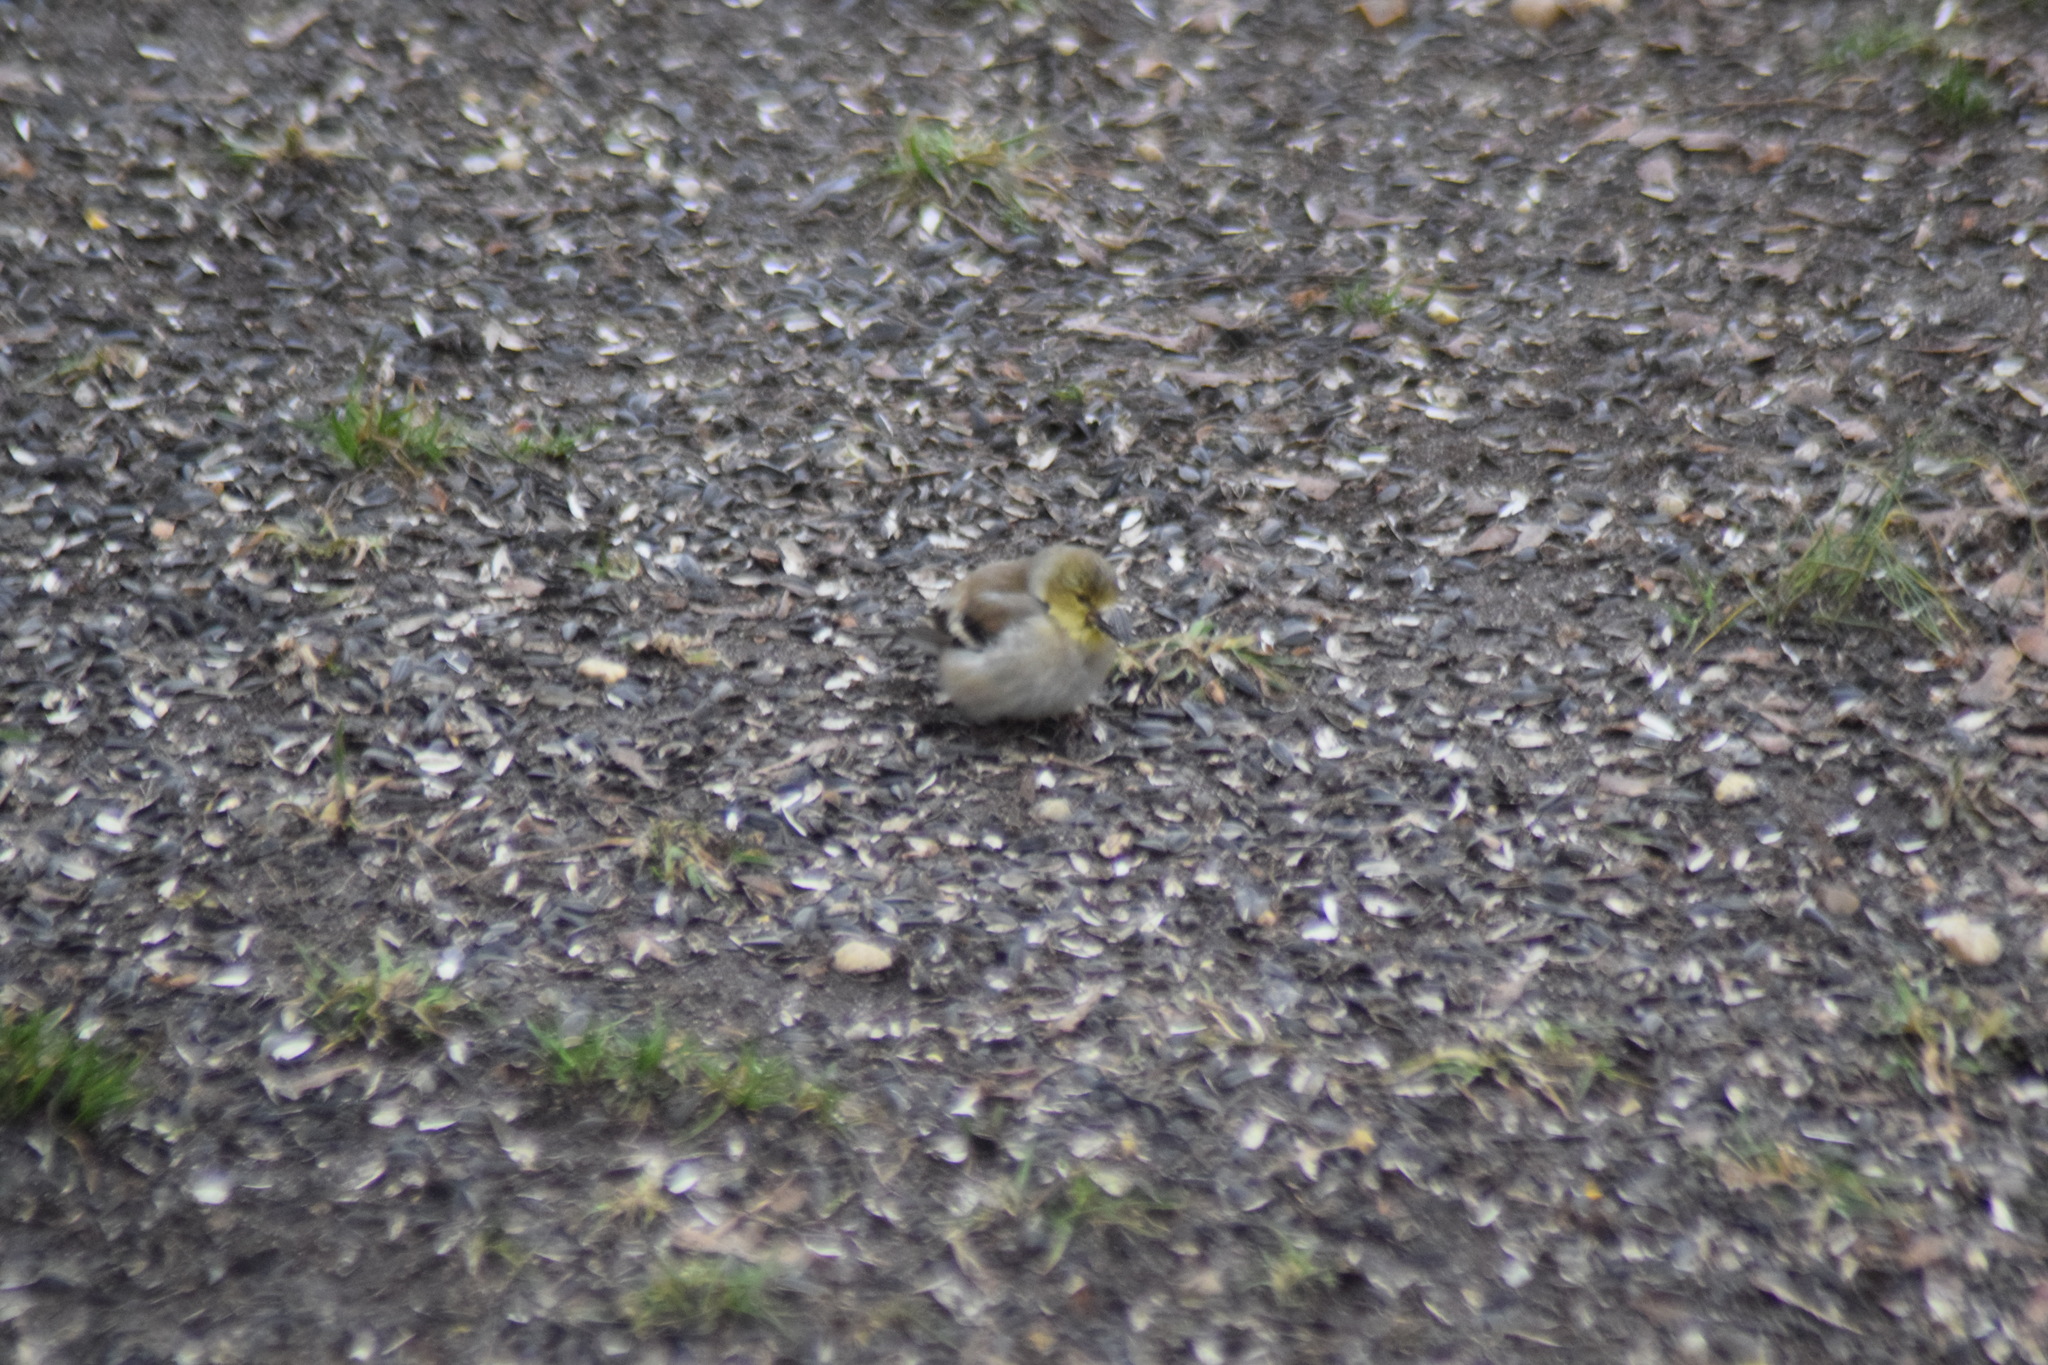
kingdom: Animalia
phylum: Chordata
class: Aves
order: Passeriformes
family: Fringillidae
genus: Spinus
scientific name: Spinus tristis
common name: American goldfinch
